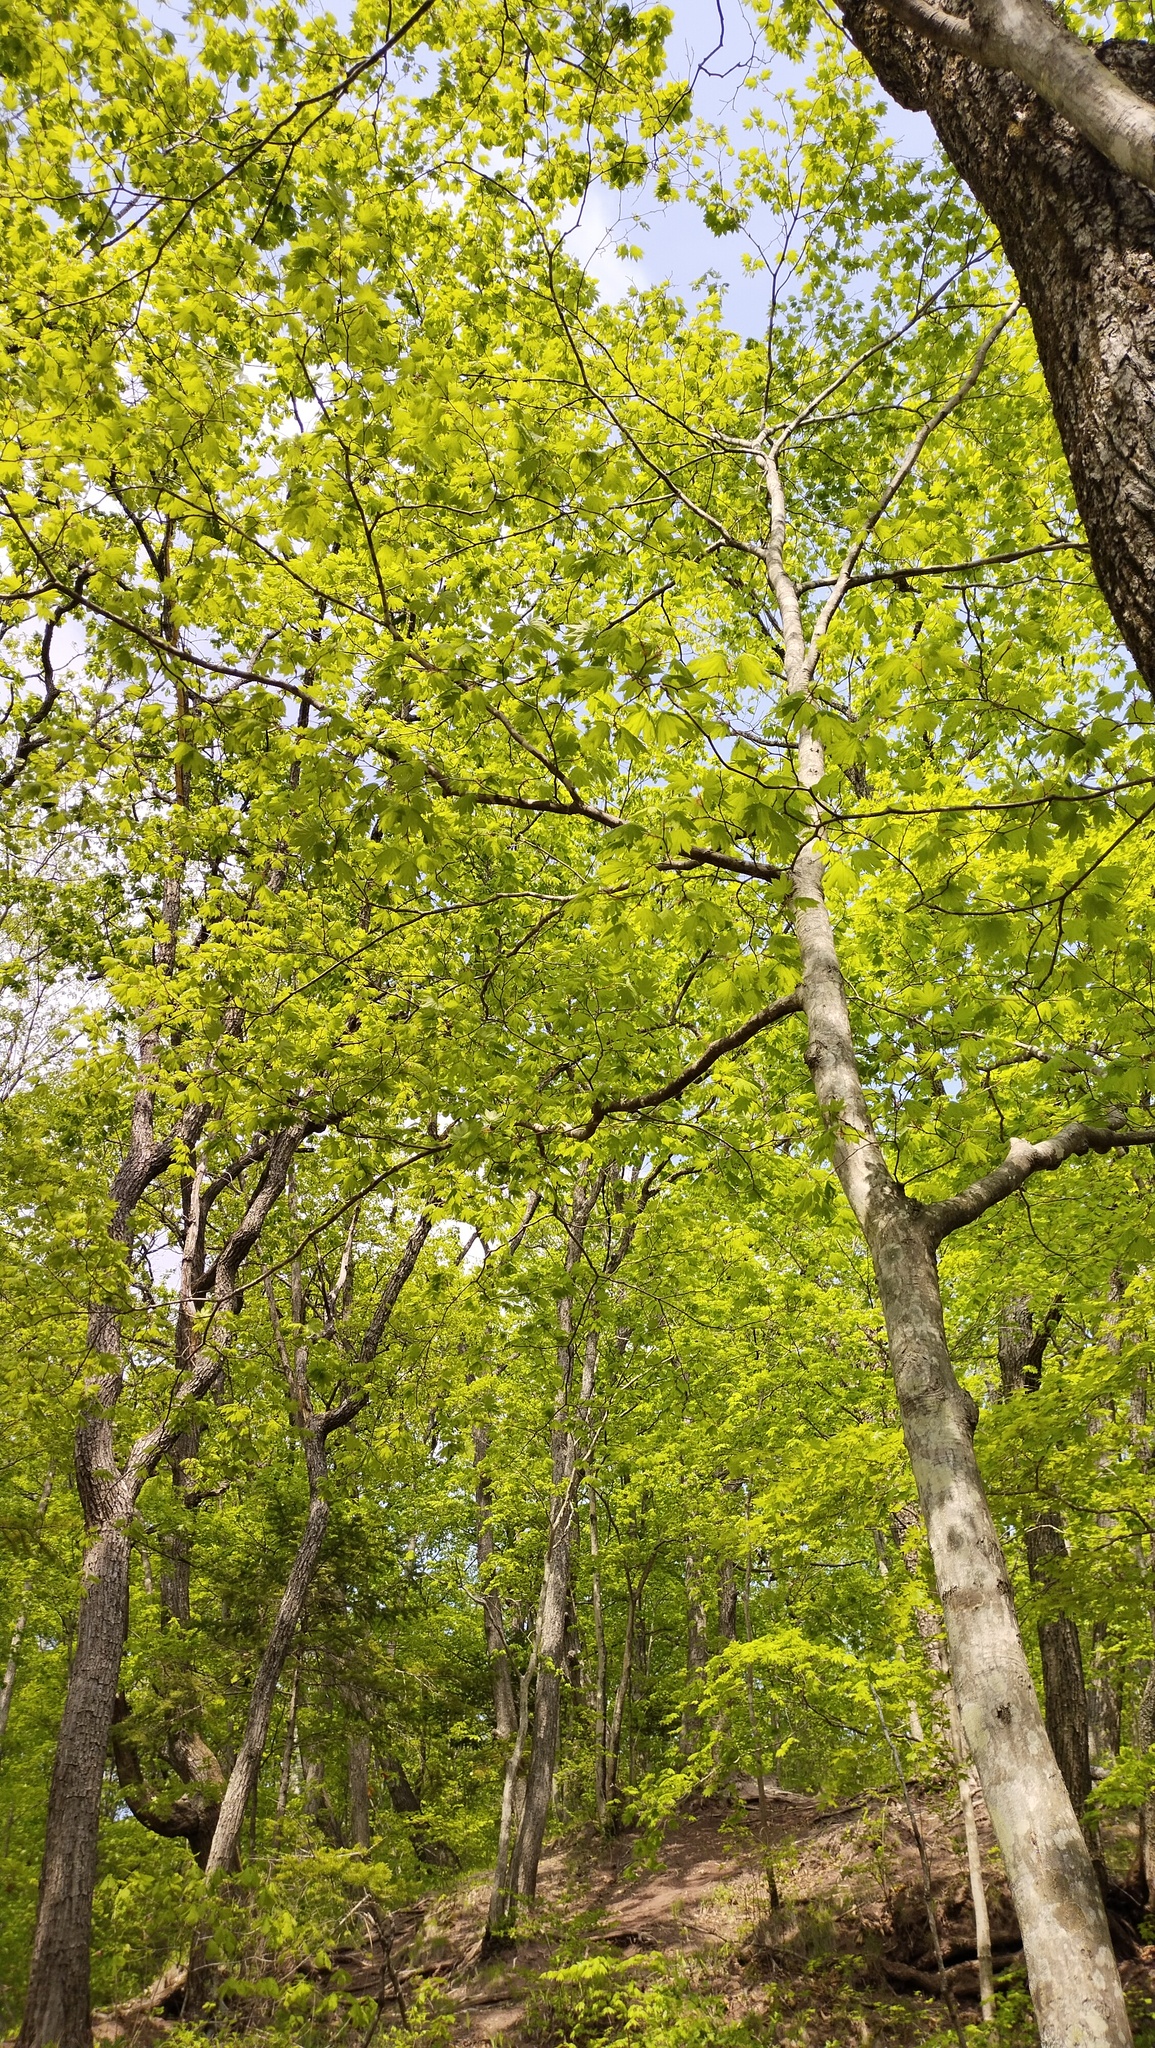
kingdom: Plantae
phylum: Tracheophyta
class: Magnoliopsida
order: Sapindales
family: Sapindaceae
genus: Acer
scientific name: Acer pseudosieboldianum
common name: Korean maple
